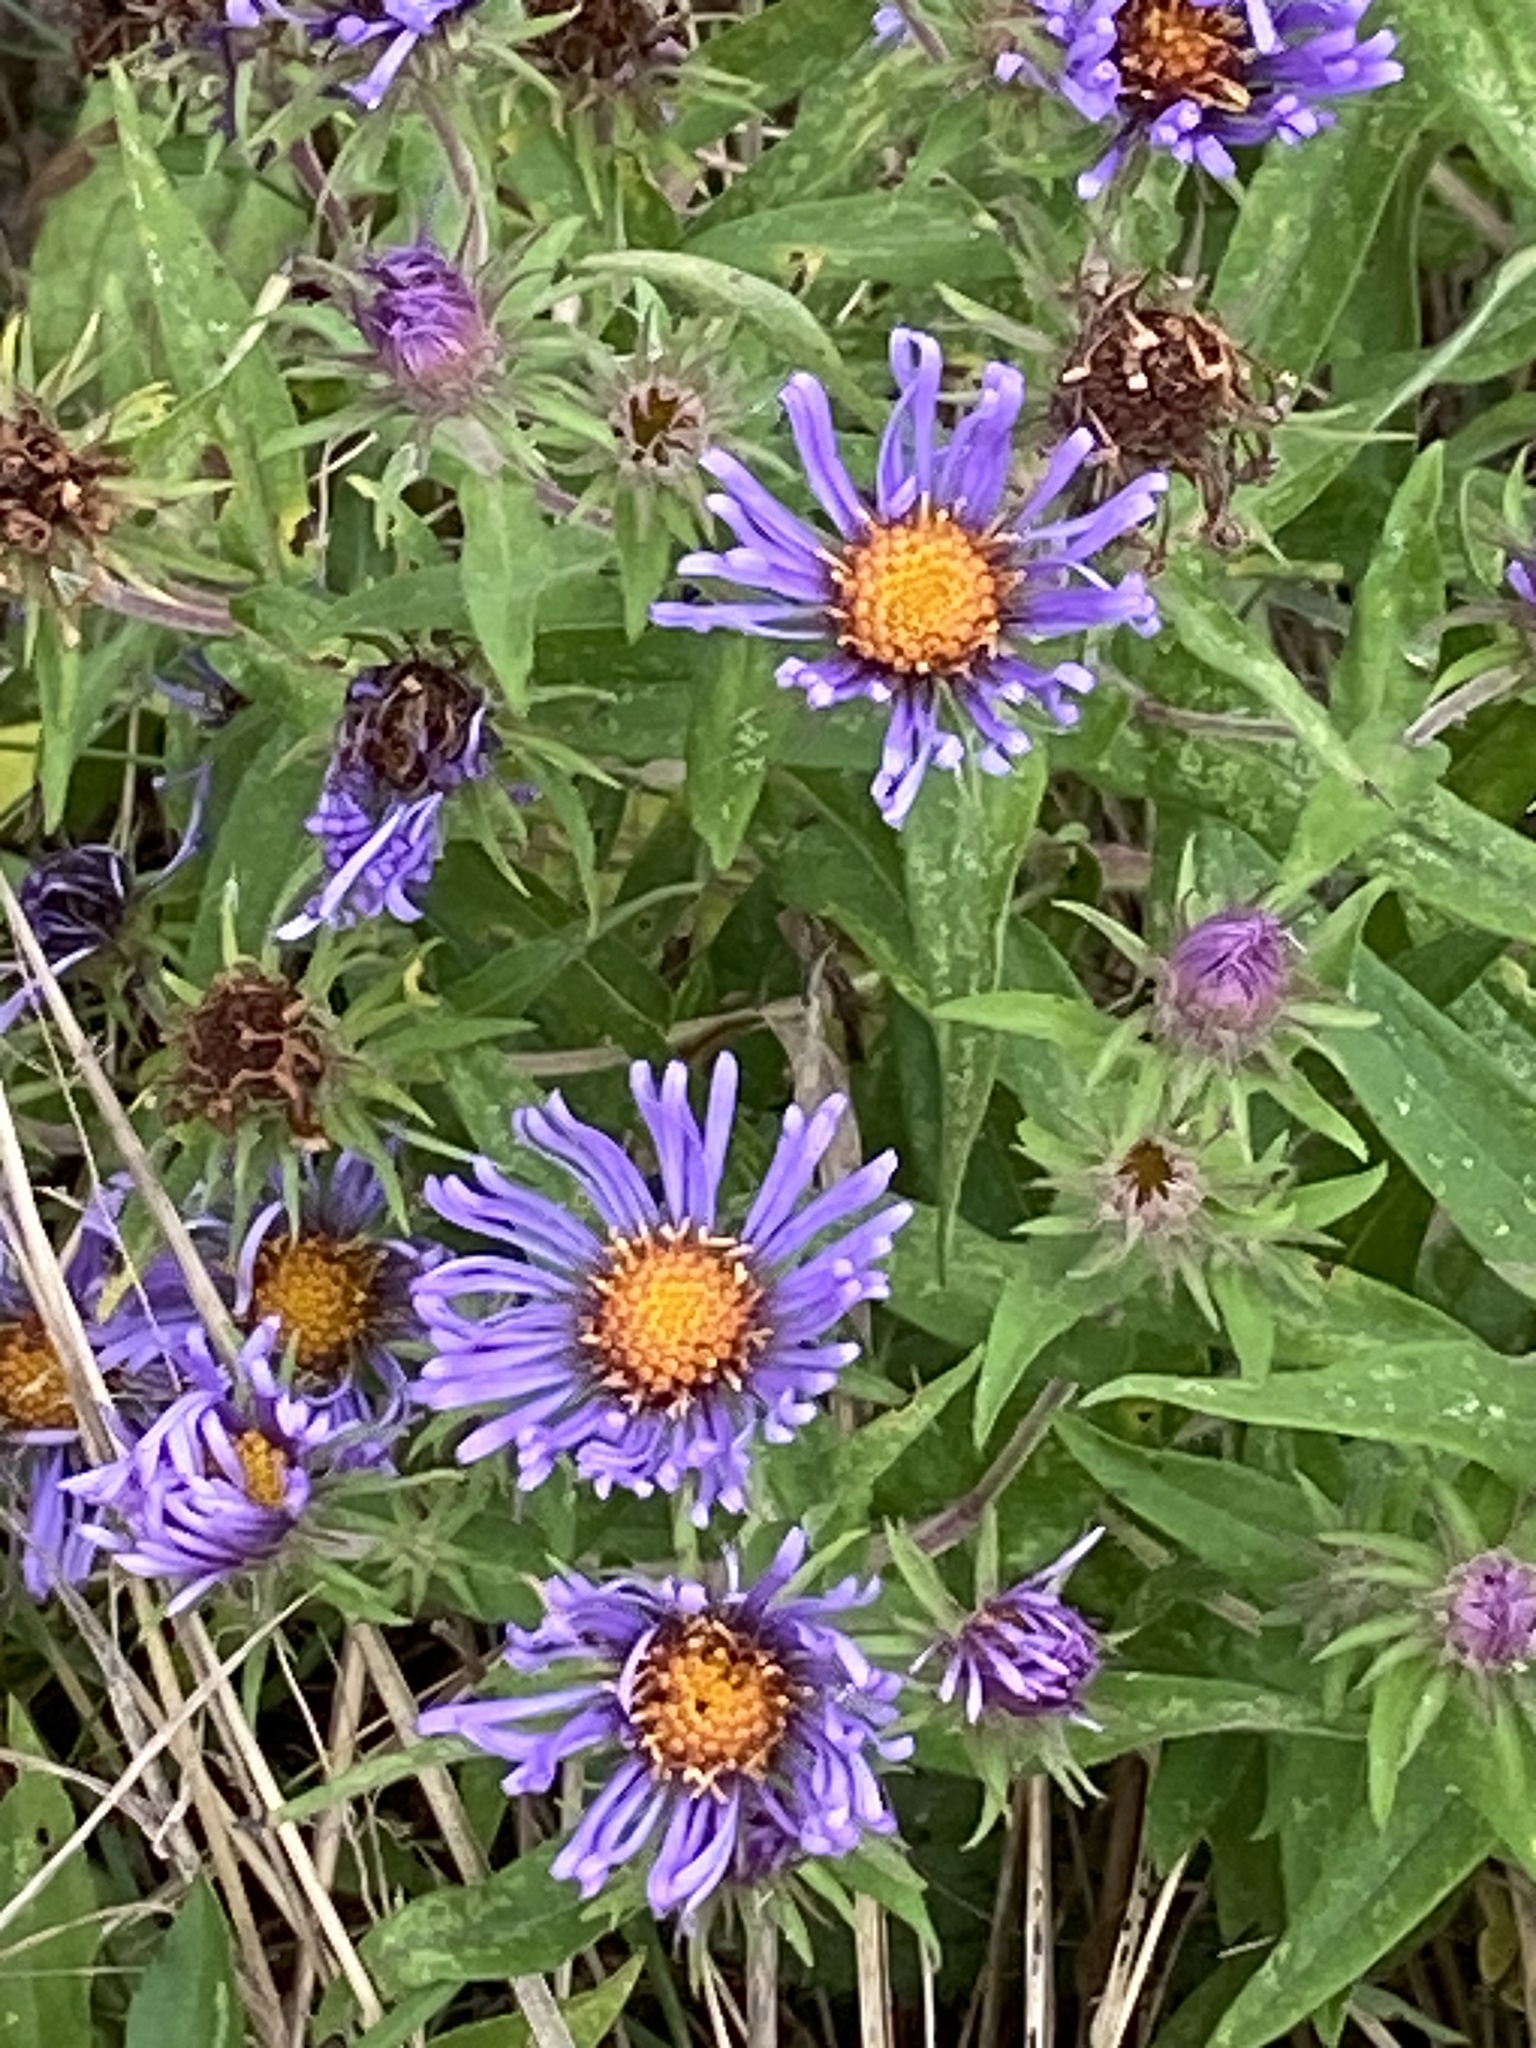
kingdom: Plantae
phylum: Tracheophyta
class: Magnoliopsida
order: Asterales
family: Asteraceae
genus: Symphyotrichum
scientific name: Symphyotrichum novae-angliae
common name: Michaelmas daisy
